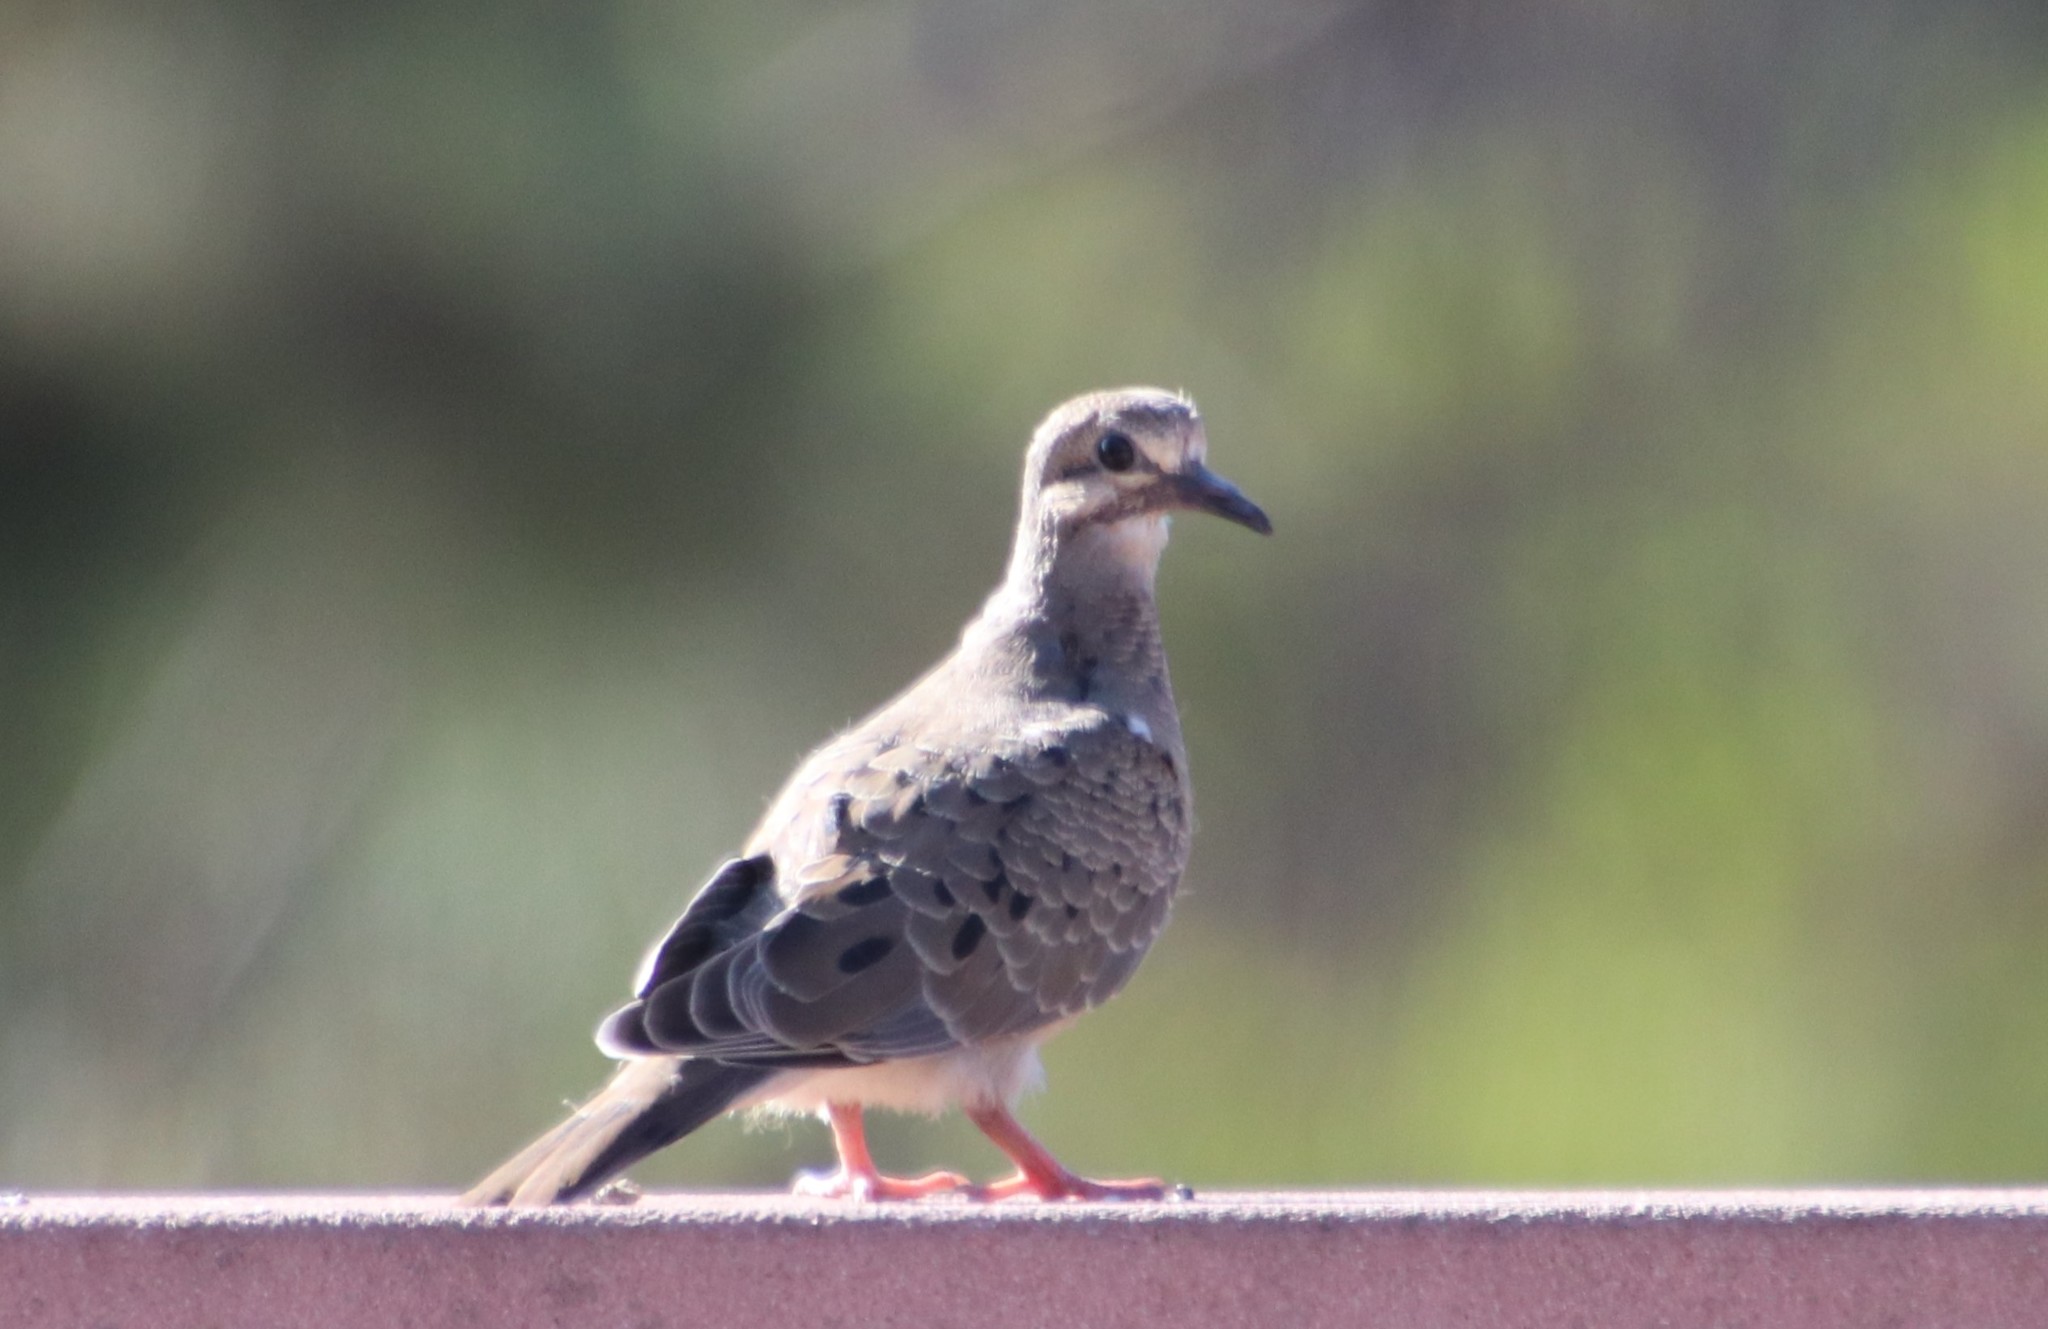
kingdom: Animalia
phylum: Chordata
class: Aves
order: Columbiformes
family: Columbidae
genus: Zenaida
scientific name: Zenaida macroura
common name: Mourning dove
